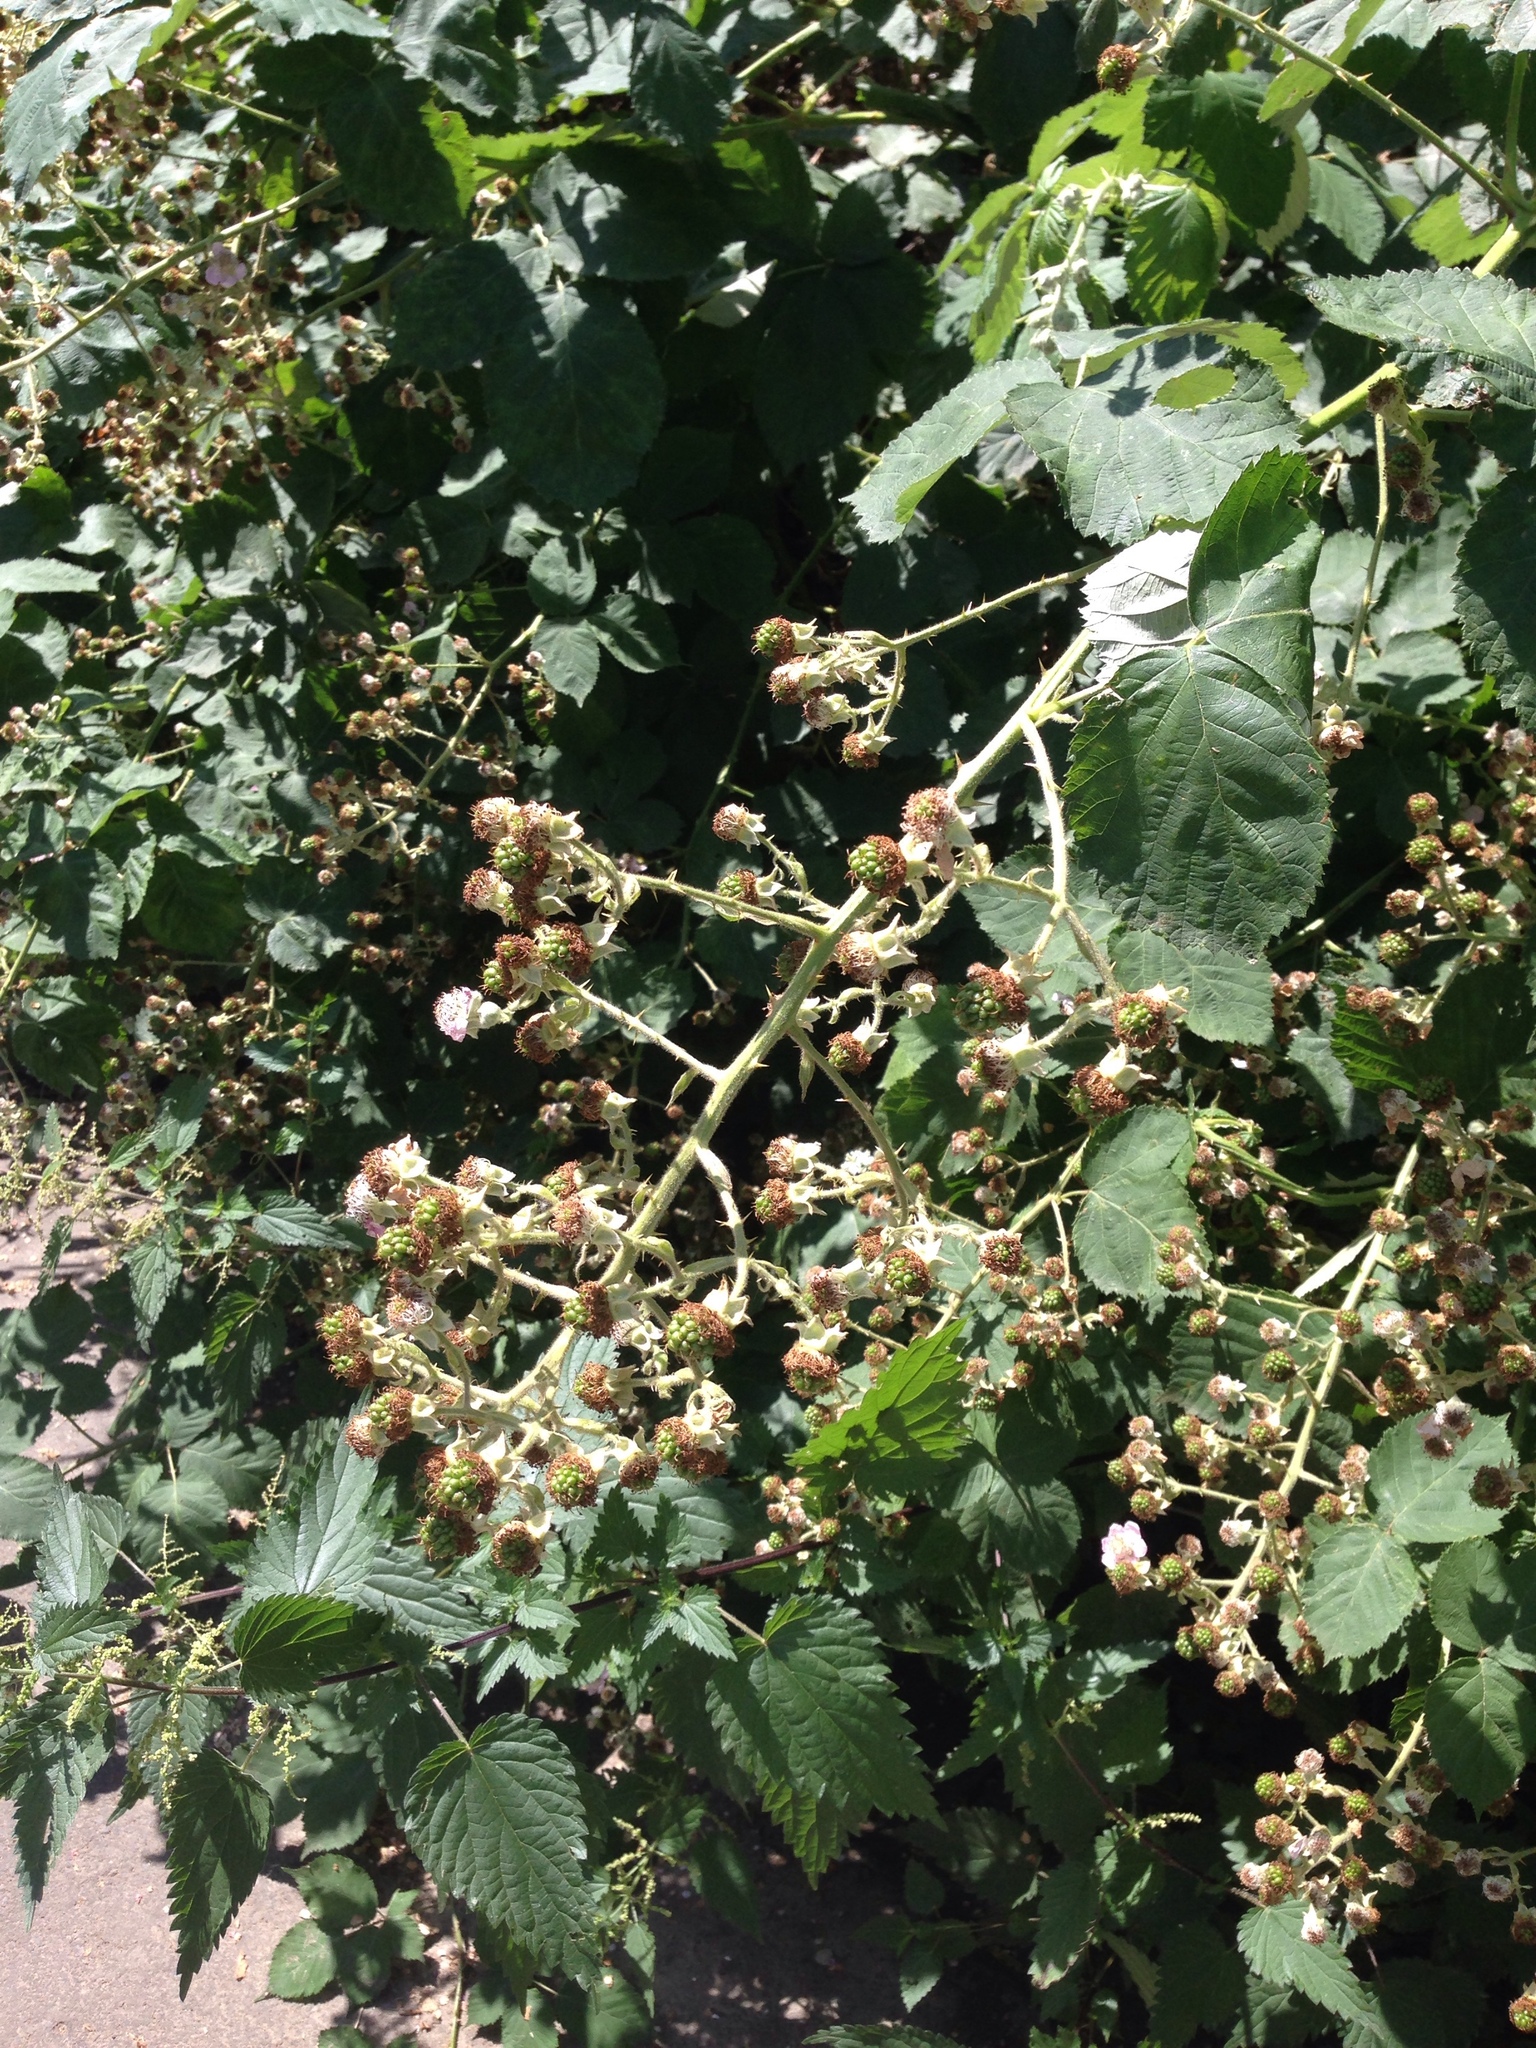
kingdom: Plantae
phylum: Tracheophyta
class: Magnoliopsida
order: Rosales
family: Rosaceae
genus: Rubus
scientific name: Rubus armeniacus
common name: Himalayan blackberry
